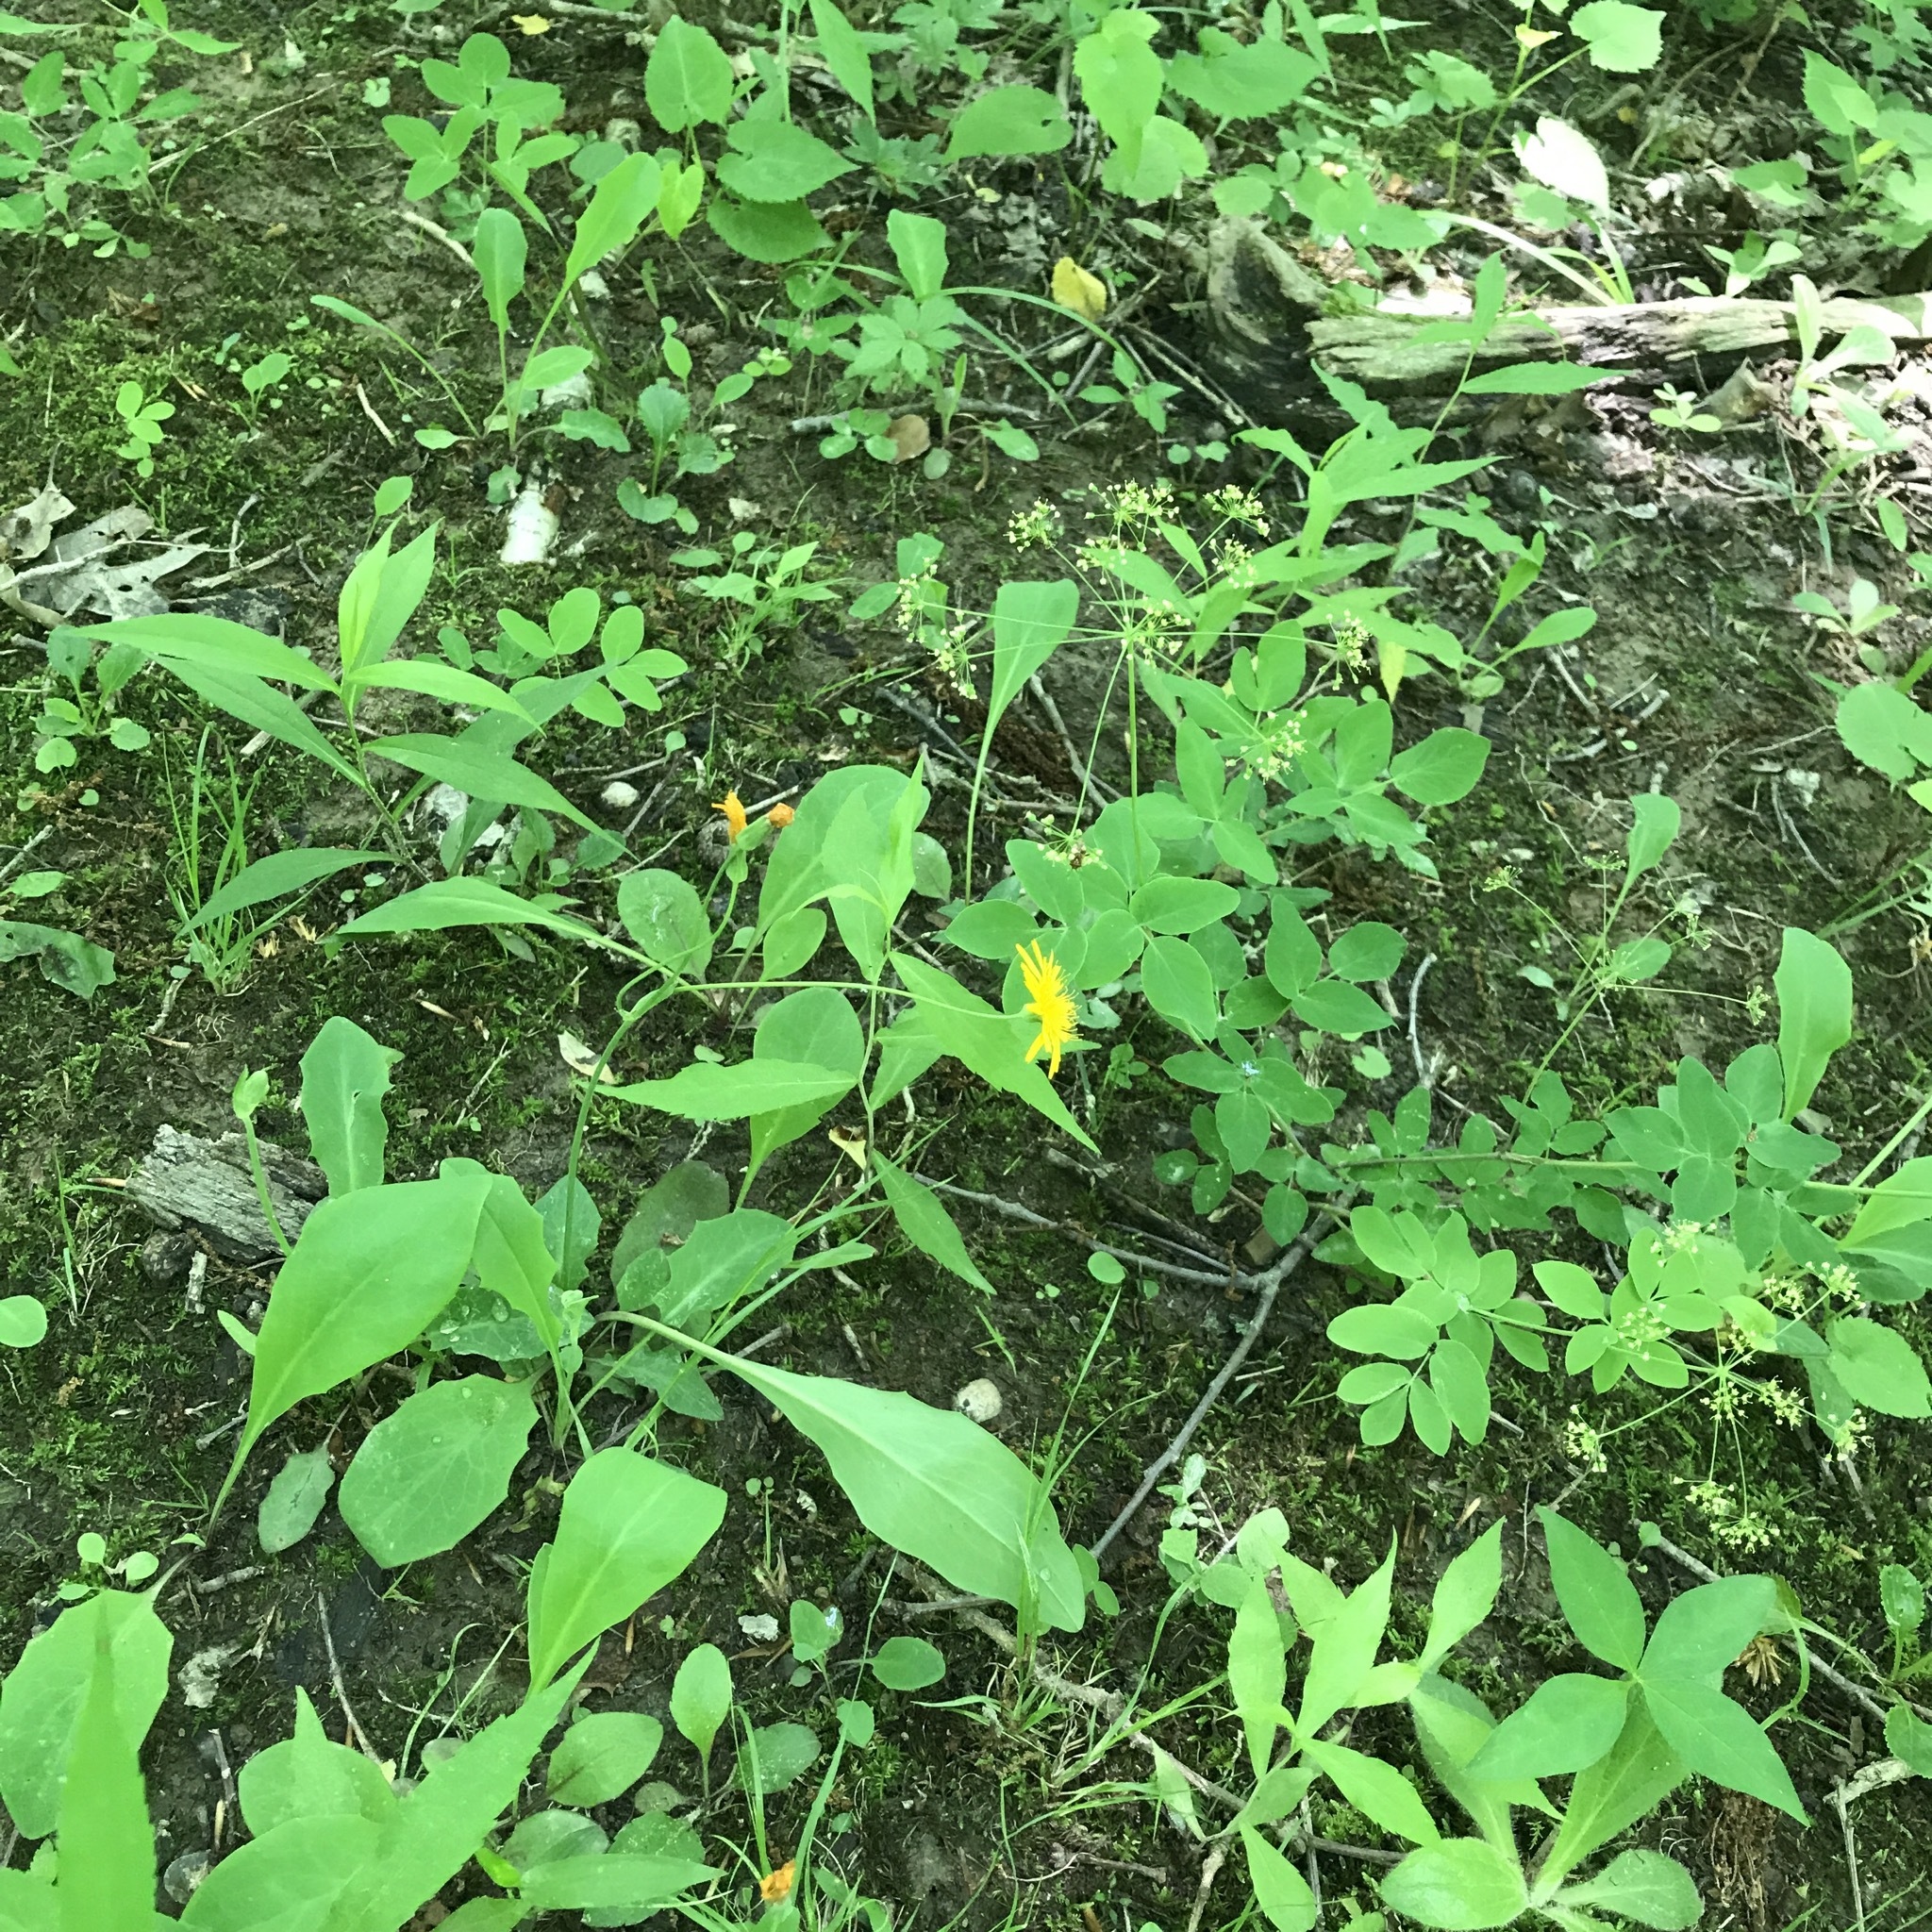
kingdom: Plantae
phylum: Tracheophyta
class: Magnoliopsida
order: Asterales
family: Asteraceae
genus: Krigia
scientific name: Krigia biflora
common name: Orange dwarf-dandelion
